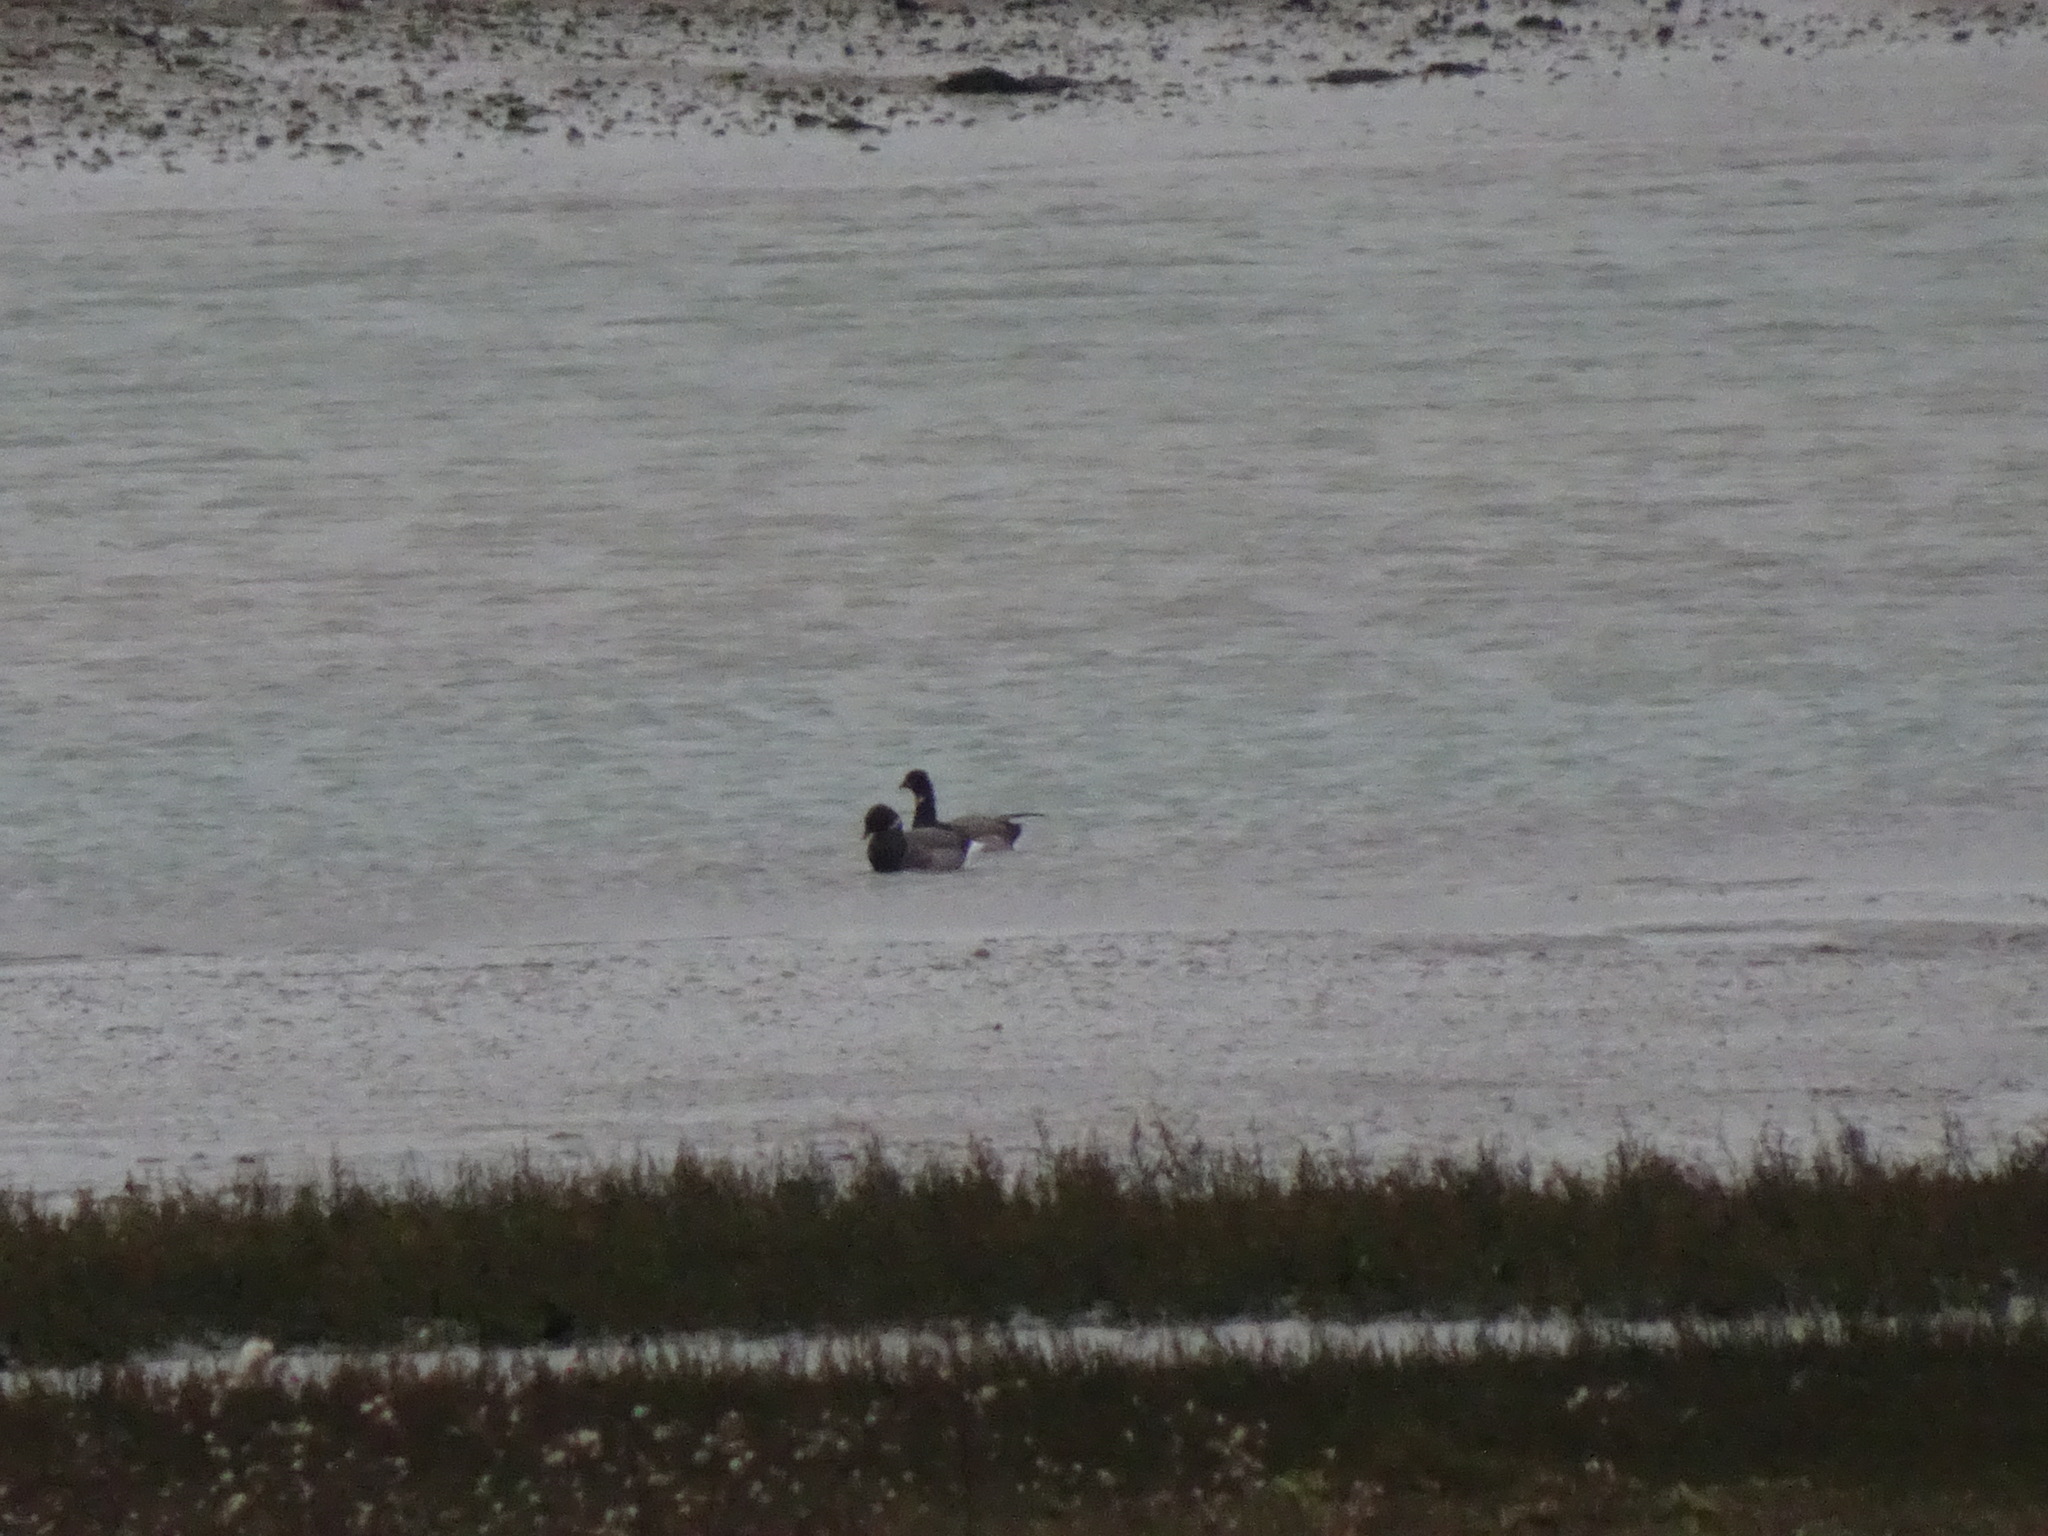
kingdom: Animalia
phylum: Chordata
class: Aves
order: Anseriformes
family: Anatidae
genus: Branta
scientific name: Branta bernicla
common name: Brant goose
